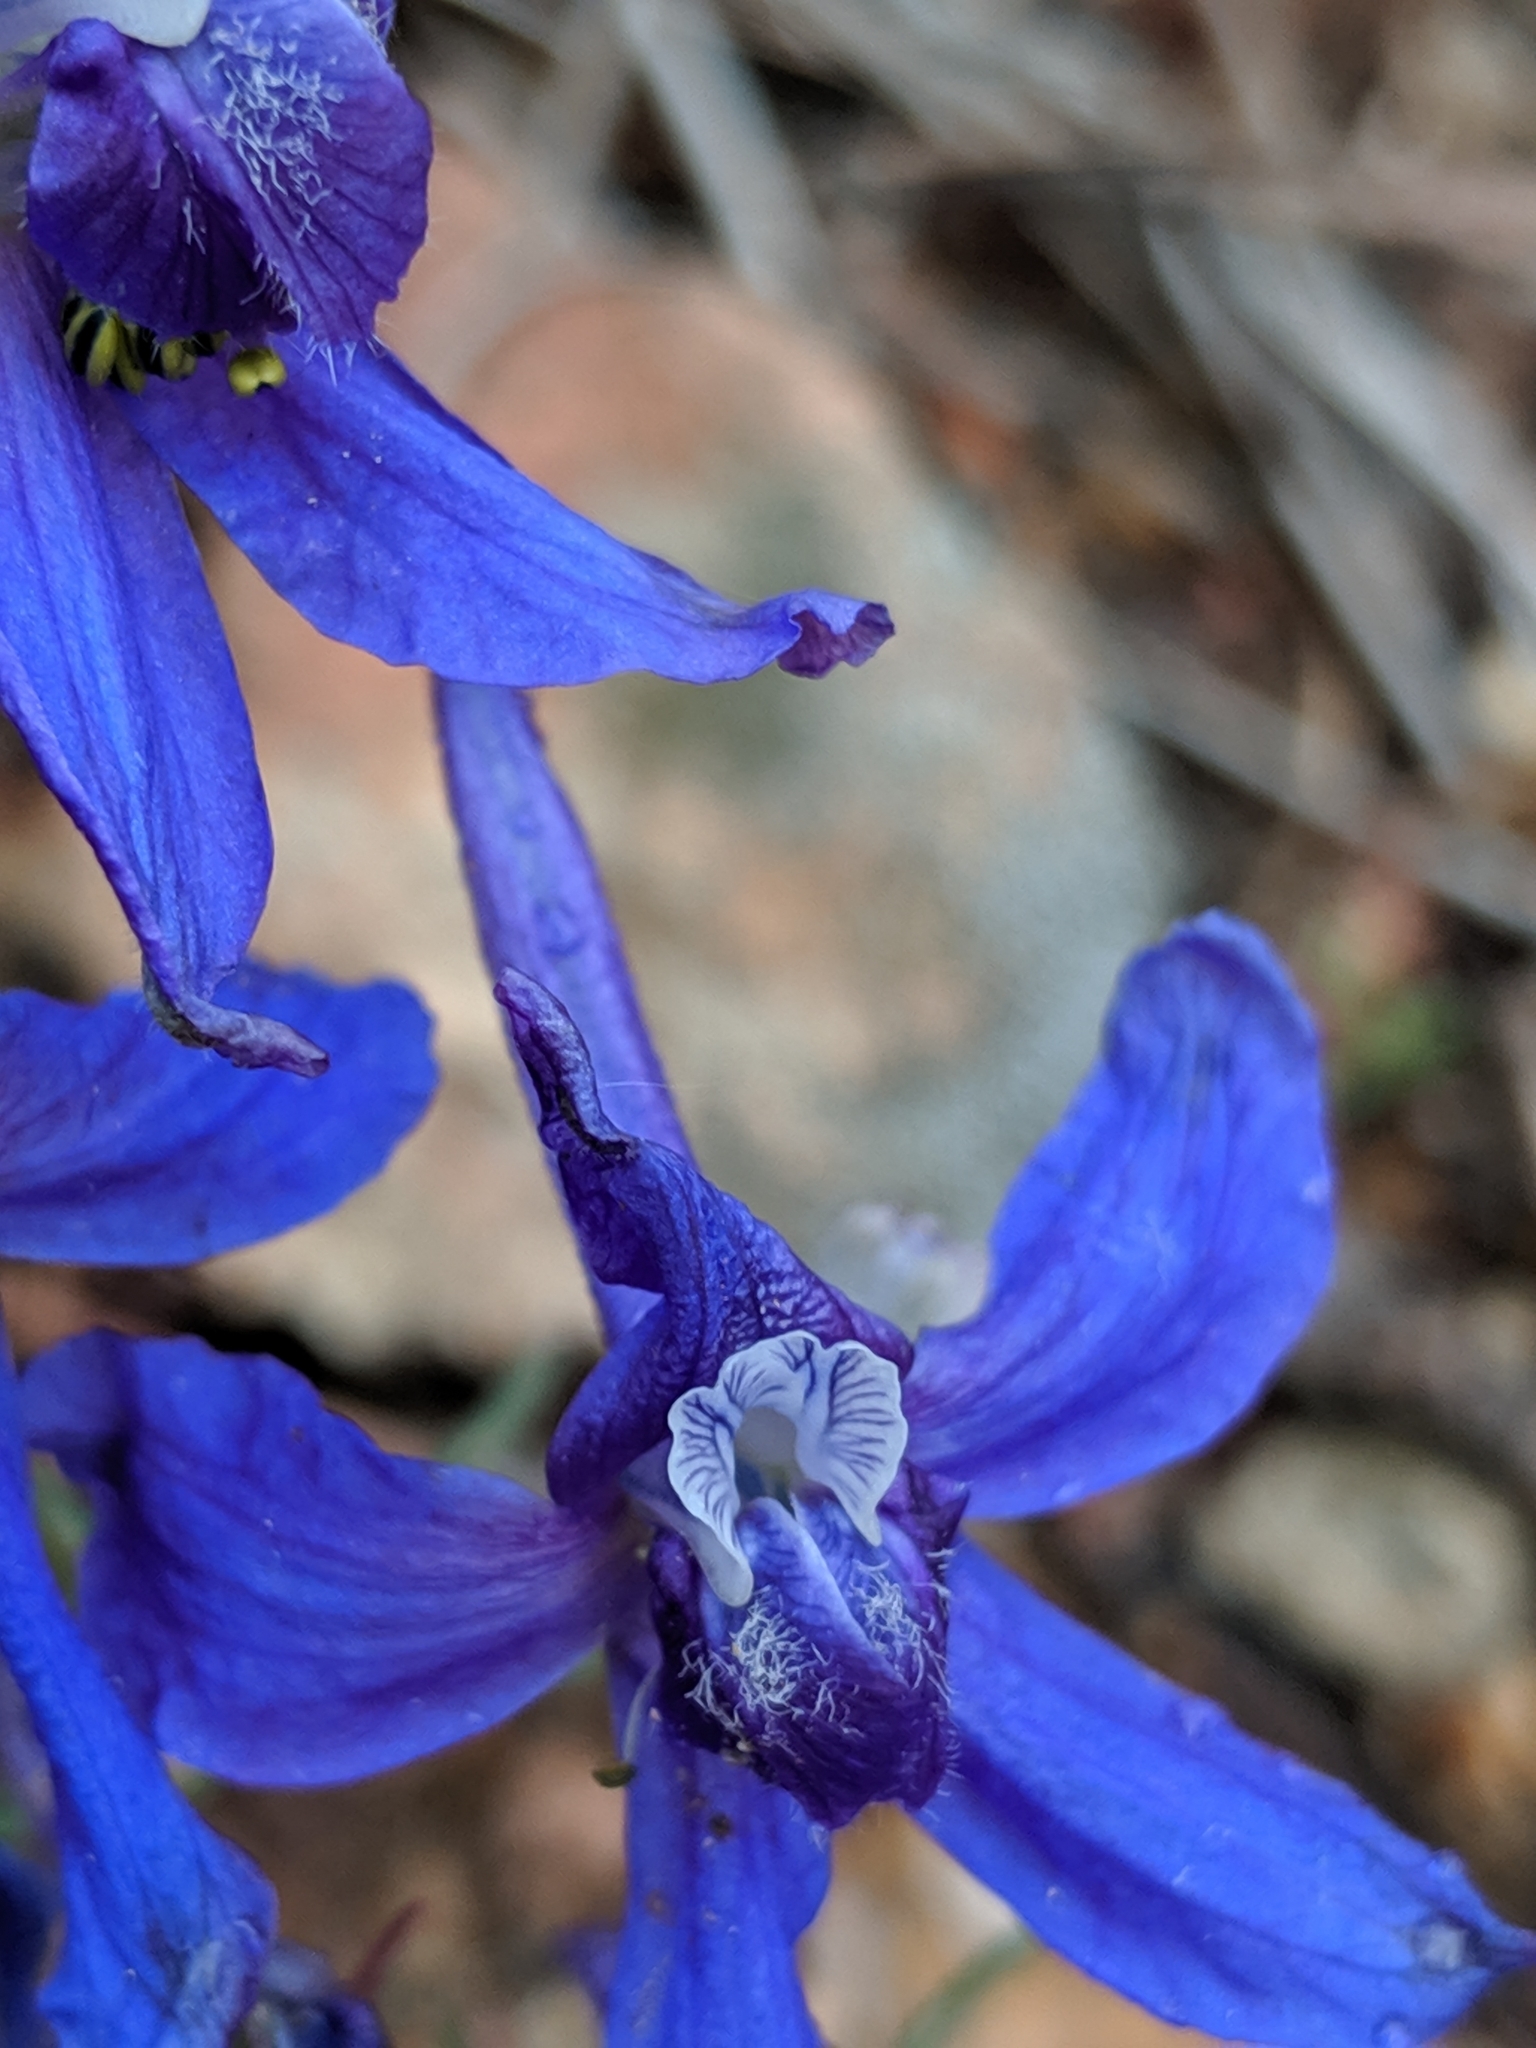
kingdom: Plantae
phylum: Tracheophyta
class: Magnoliopsida
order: Ranunculales
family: Ranunculaceae
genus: Delphinium
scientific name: Delphinium nuttallianum
